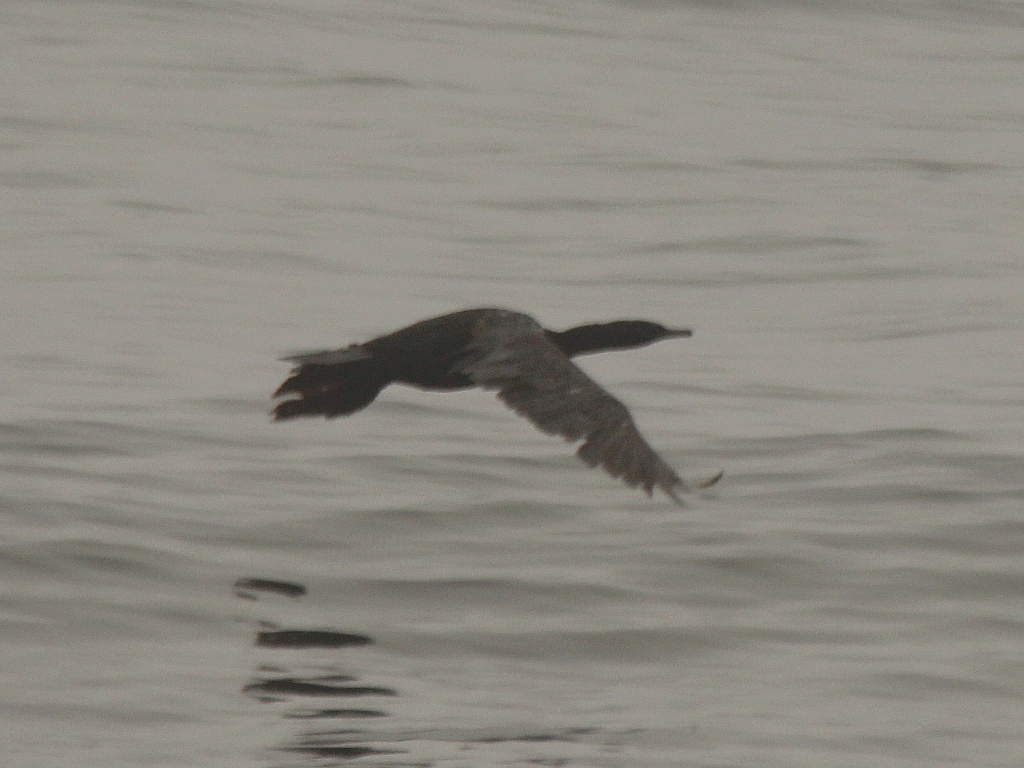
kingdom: Animalia
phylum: Chordata
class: Aves
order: Suliformes
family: Phalacrocoracidae
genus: Phalacrocorax
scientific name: Phalacrocorax pelagicus
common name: Pelagic cormorant
